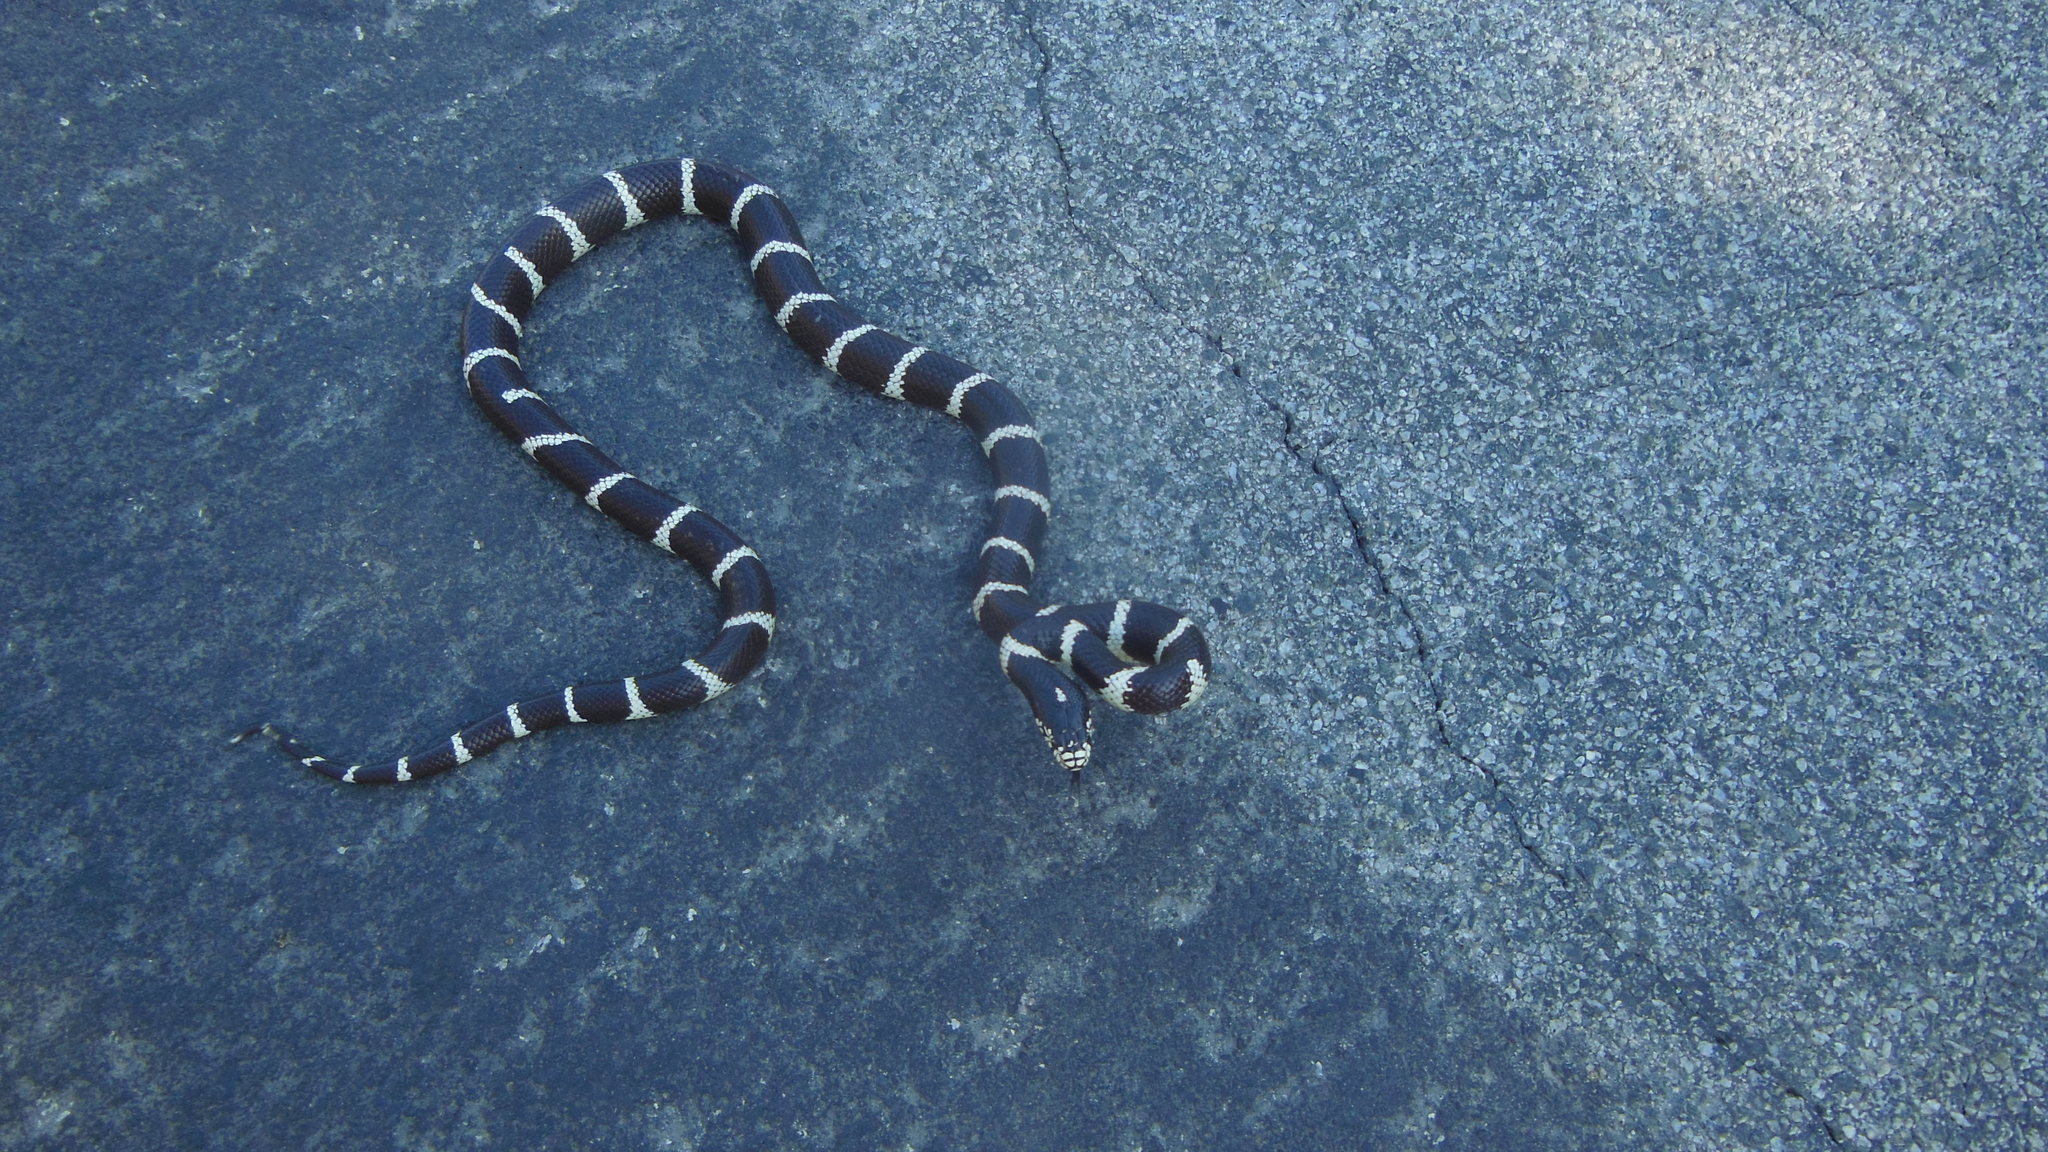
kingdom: Animalia
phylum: Chordata
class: Squamata
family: Colubridae
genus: Lampropeltis
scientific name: Lampropeltis californiae
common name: California kingsnake
